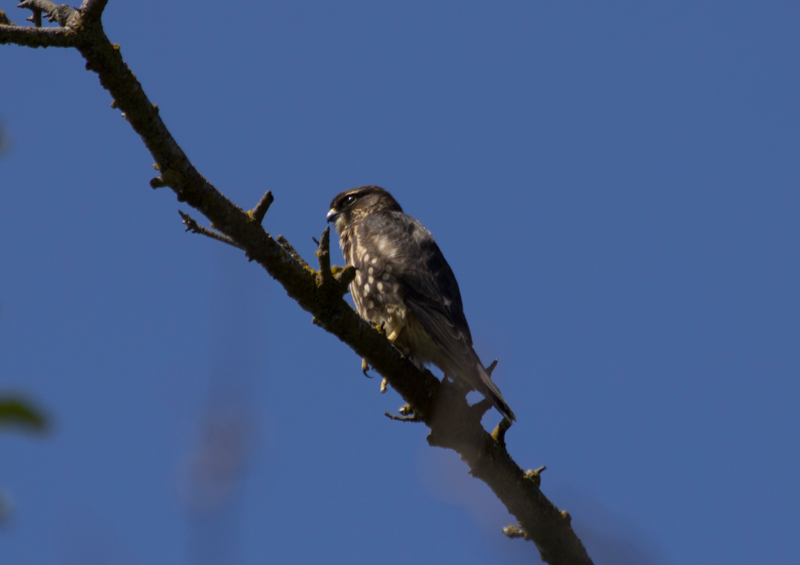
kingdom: Animalia
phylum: Chordata
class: Aves
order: Falconiformes
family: Falconidae
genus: Falco
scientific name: Falco columbarius
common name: Merlin
